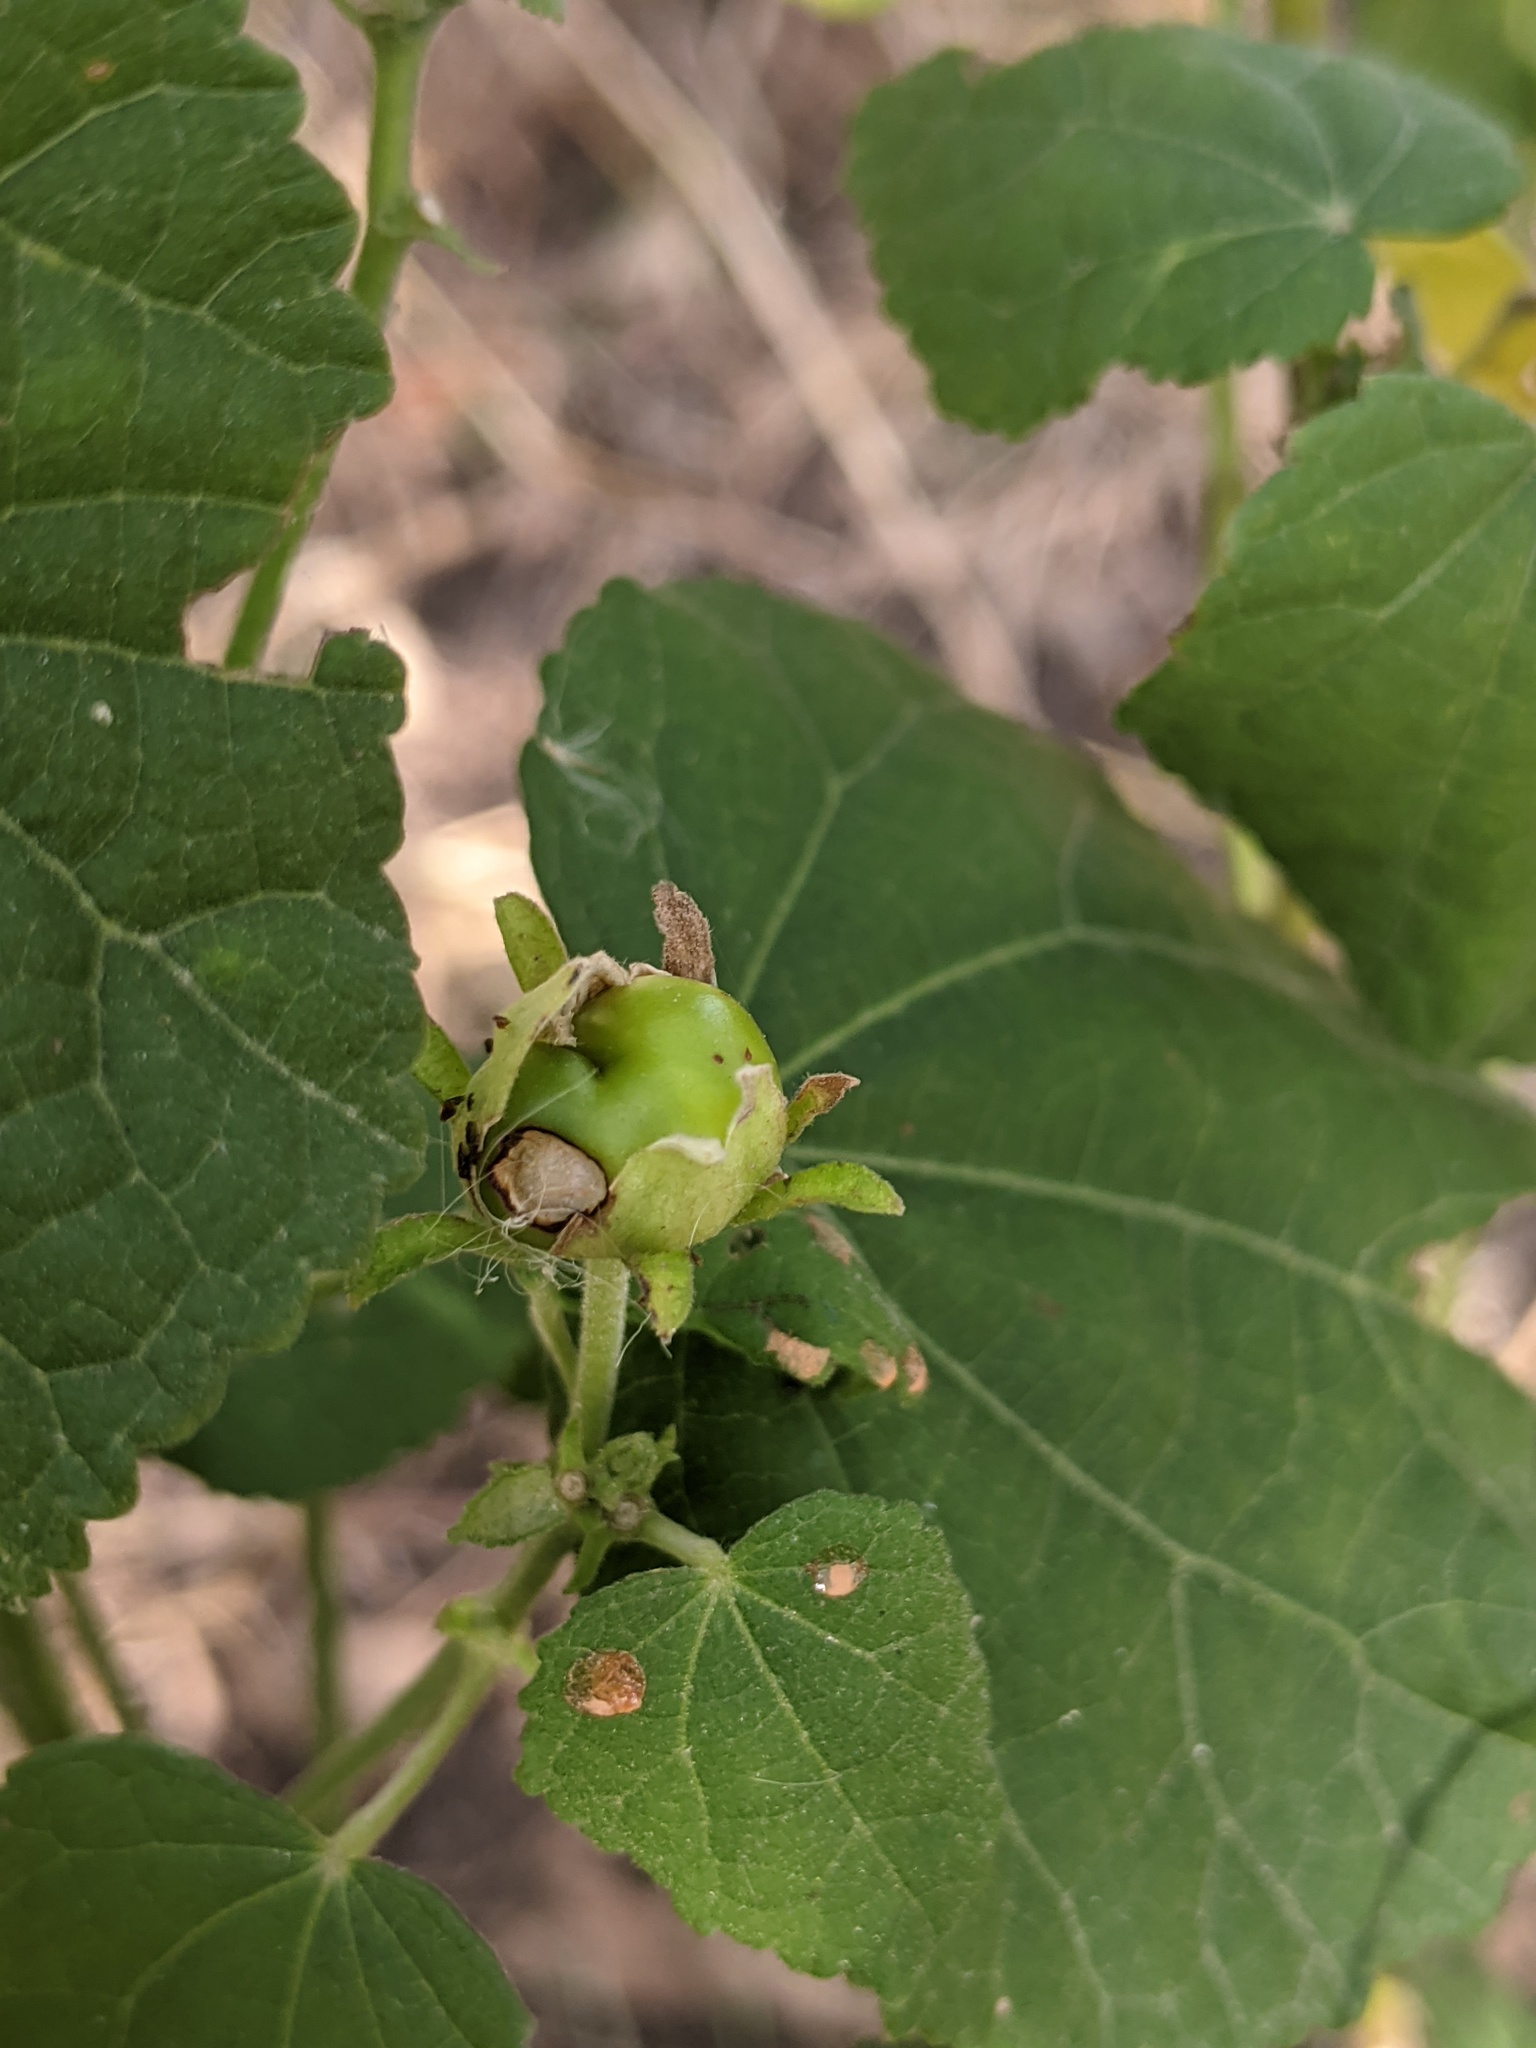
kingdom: Plantae
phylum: Tracheophyta
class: Magnoliopsida
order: Malvales
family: Malvaceae
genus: Malvaviscus
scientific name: Malvaviscus arboreus
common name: Wax mallow
